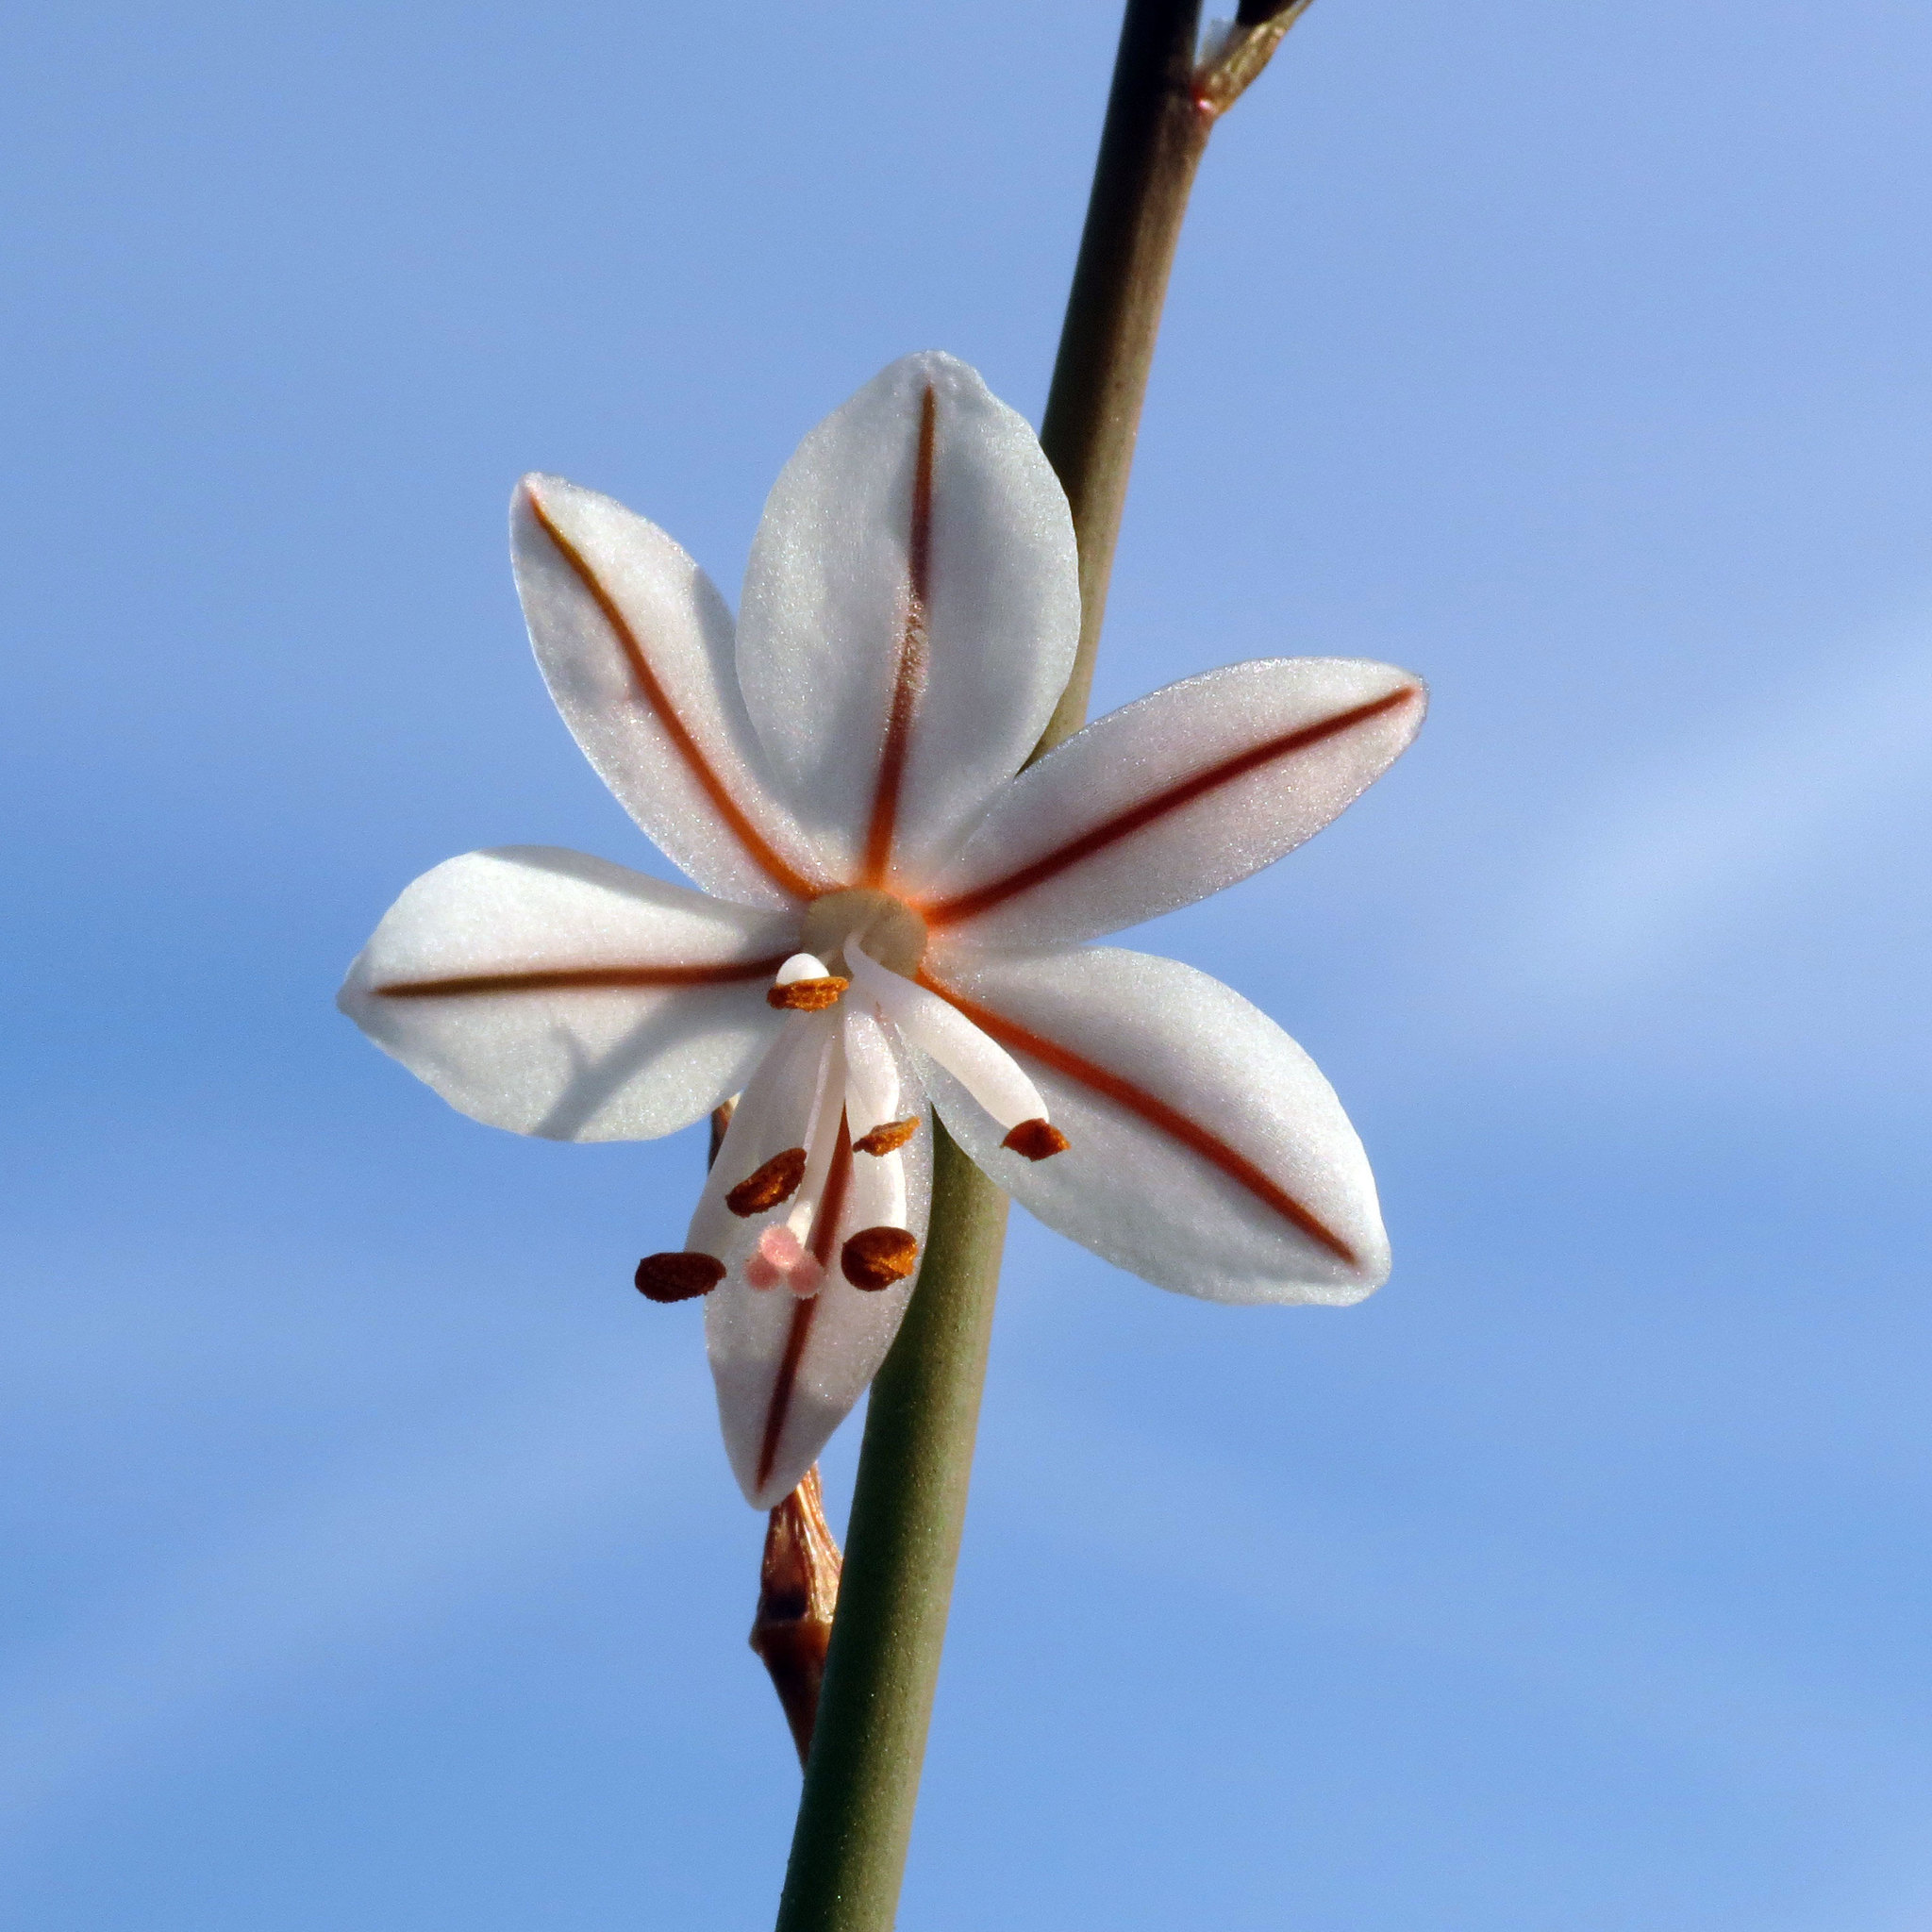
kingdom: Plantae
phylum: Tracheophyta
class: Liliopsida
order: Asparagales
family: Asphodelaceae
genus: Asphodelus
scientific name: Asphodelus fistulosus
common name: Onionweed
